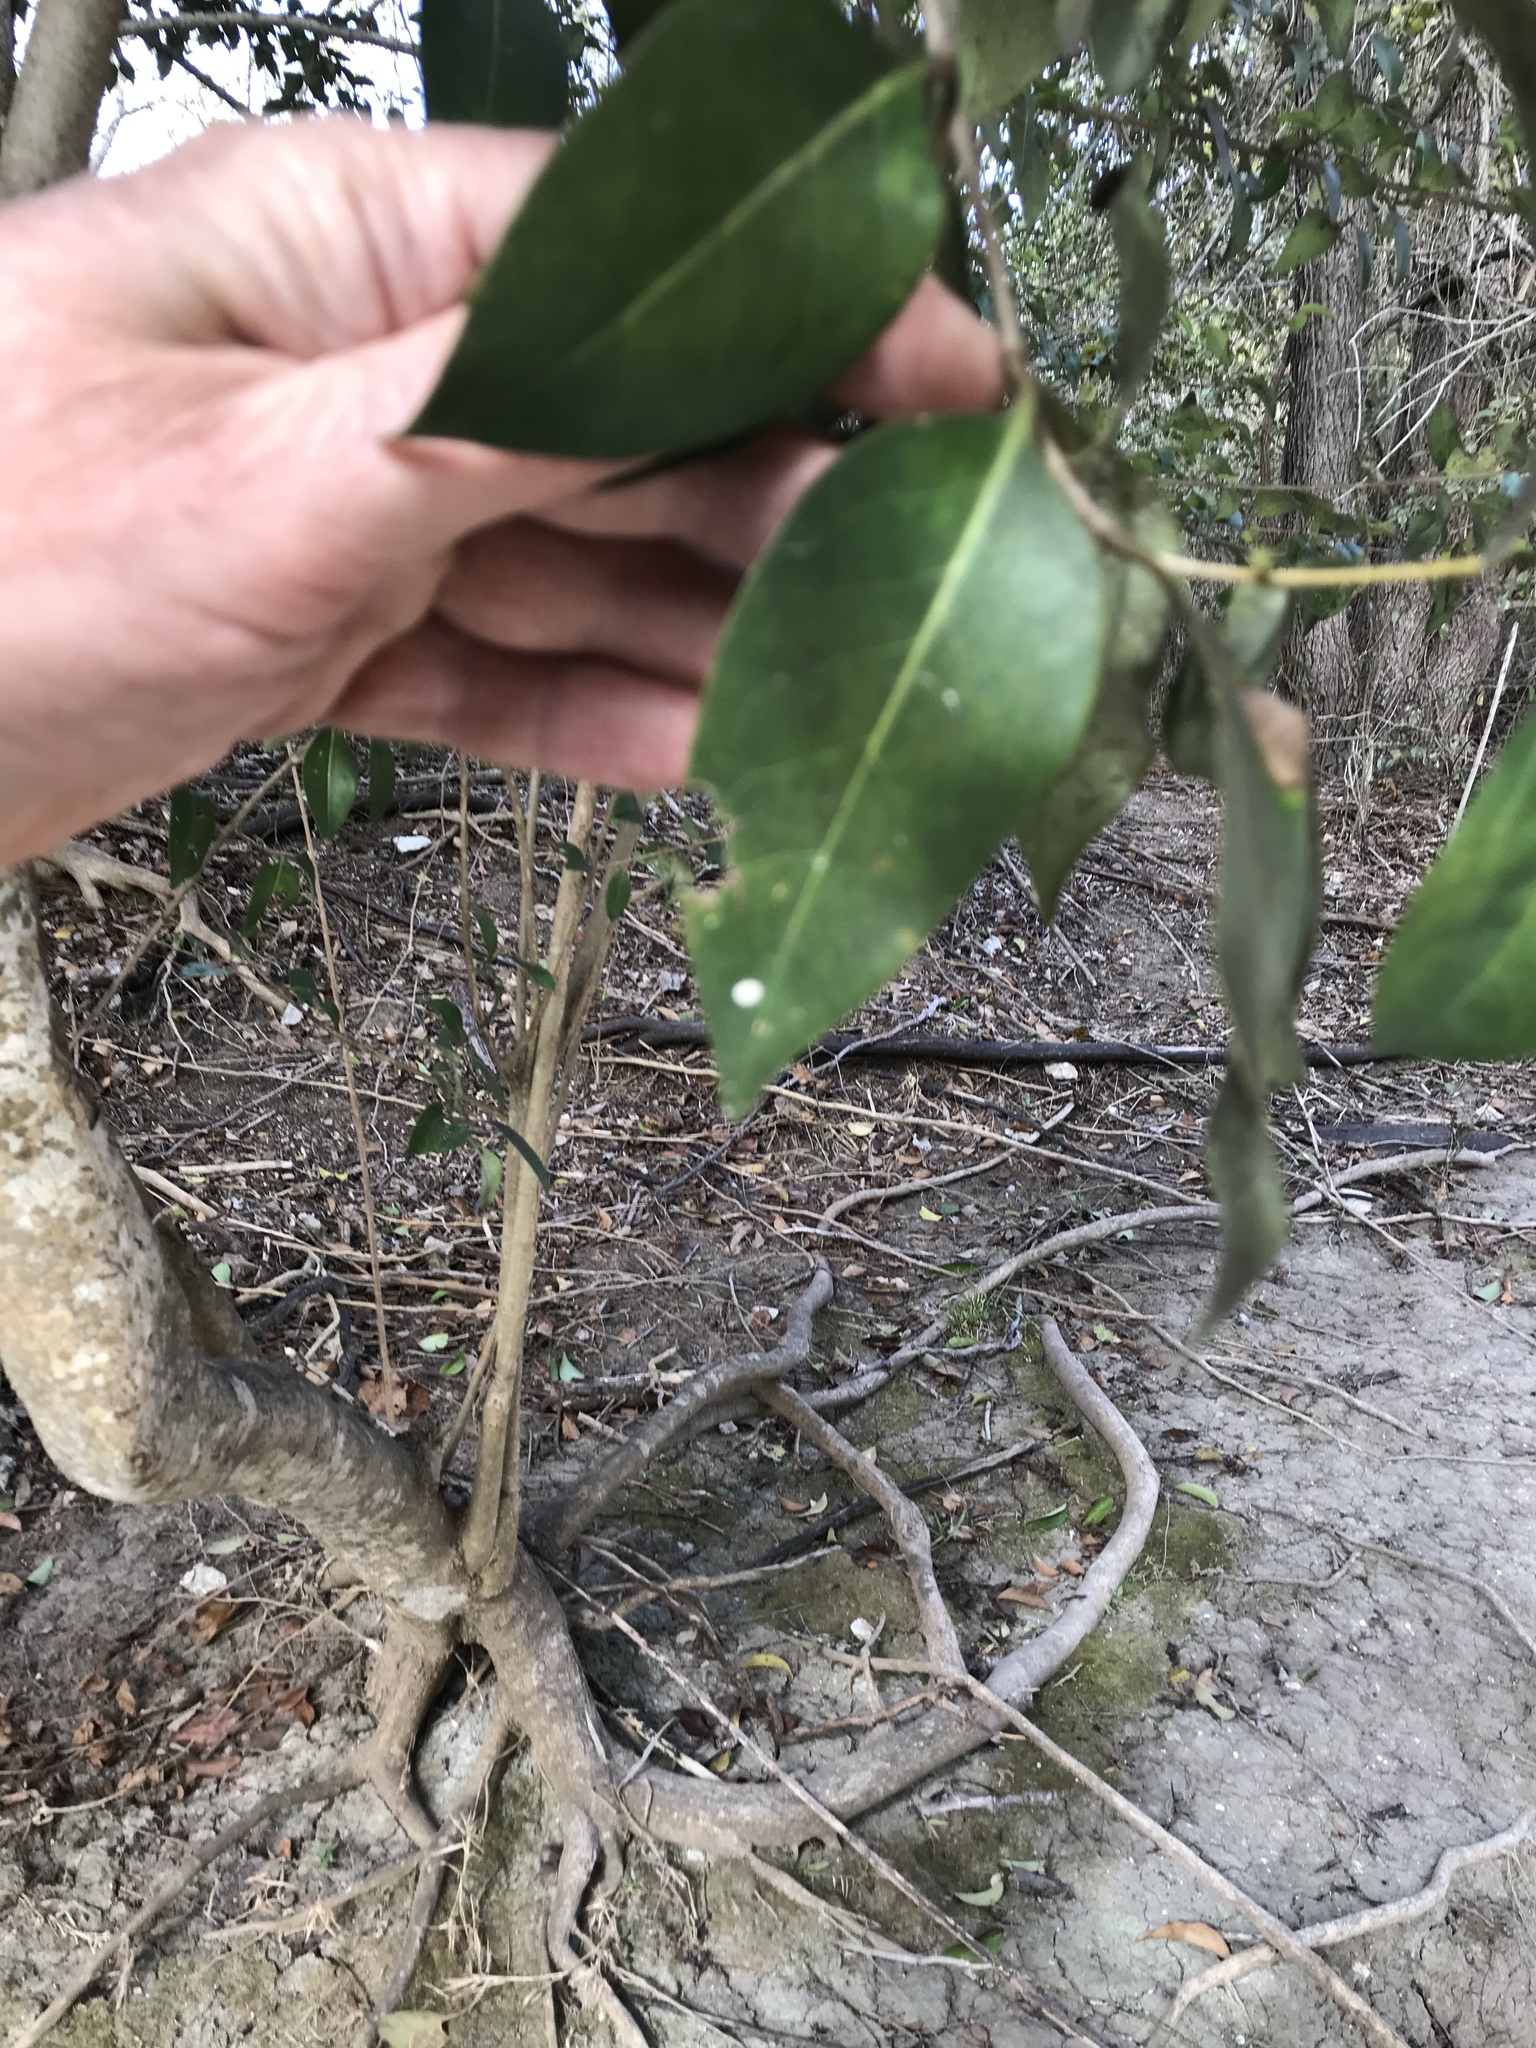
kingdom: Plantae
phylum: Tracheophyta
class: Magnoliopsida
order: Lamiales
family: Oleaceae
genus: Ligustrum
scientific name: Ligustrum lucidum
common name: Glossy privet
